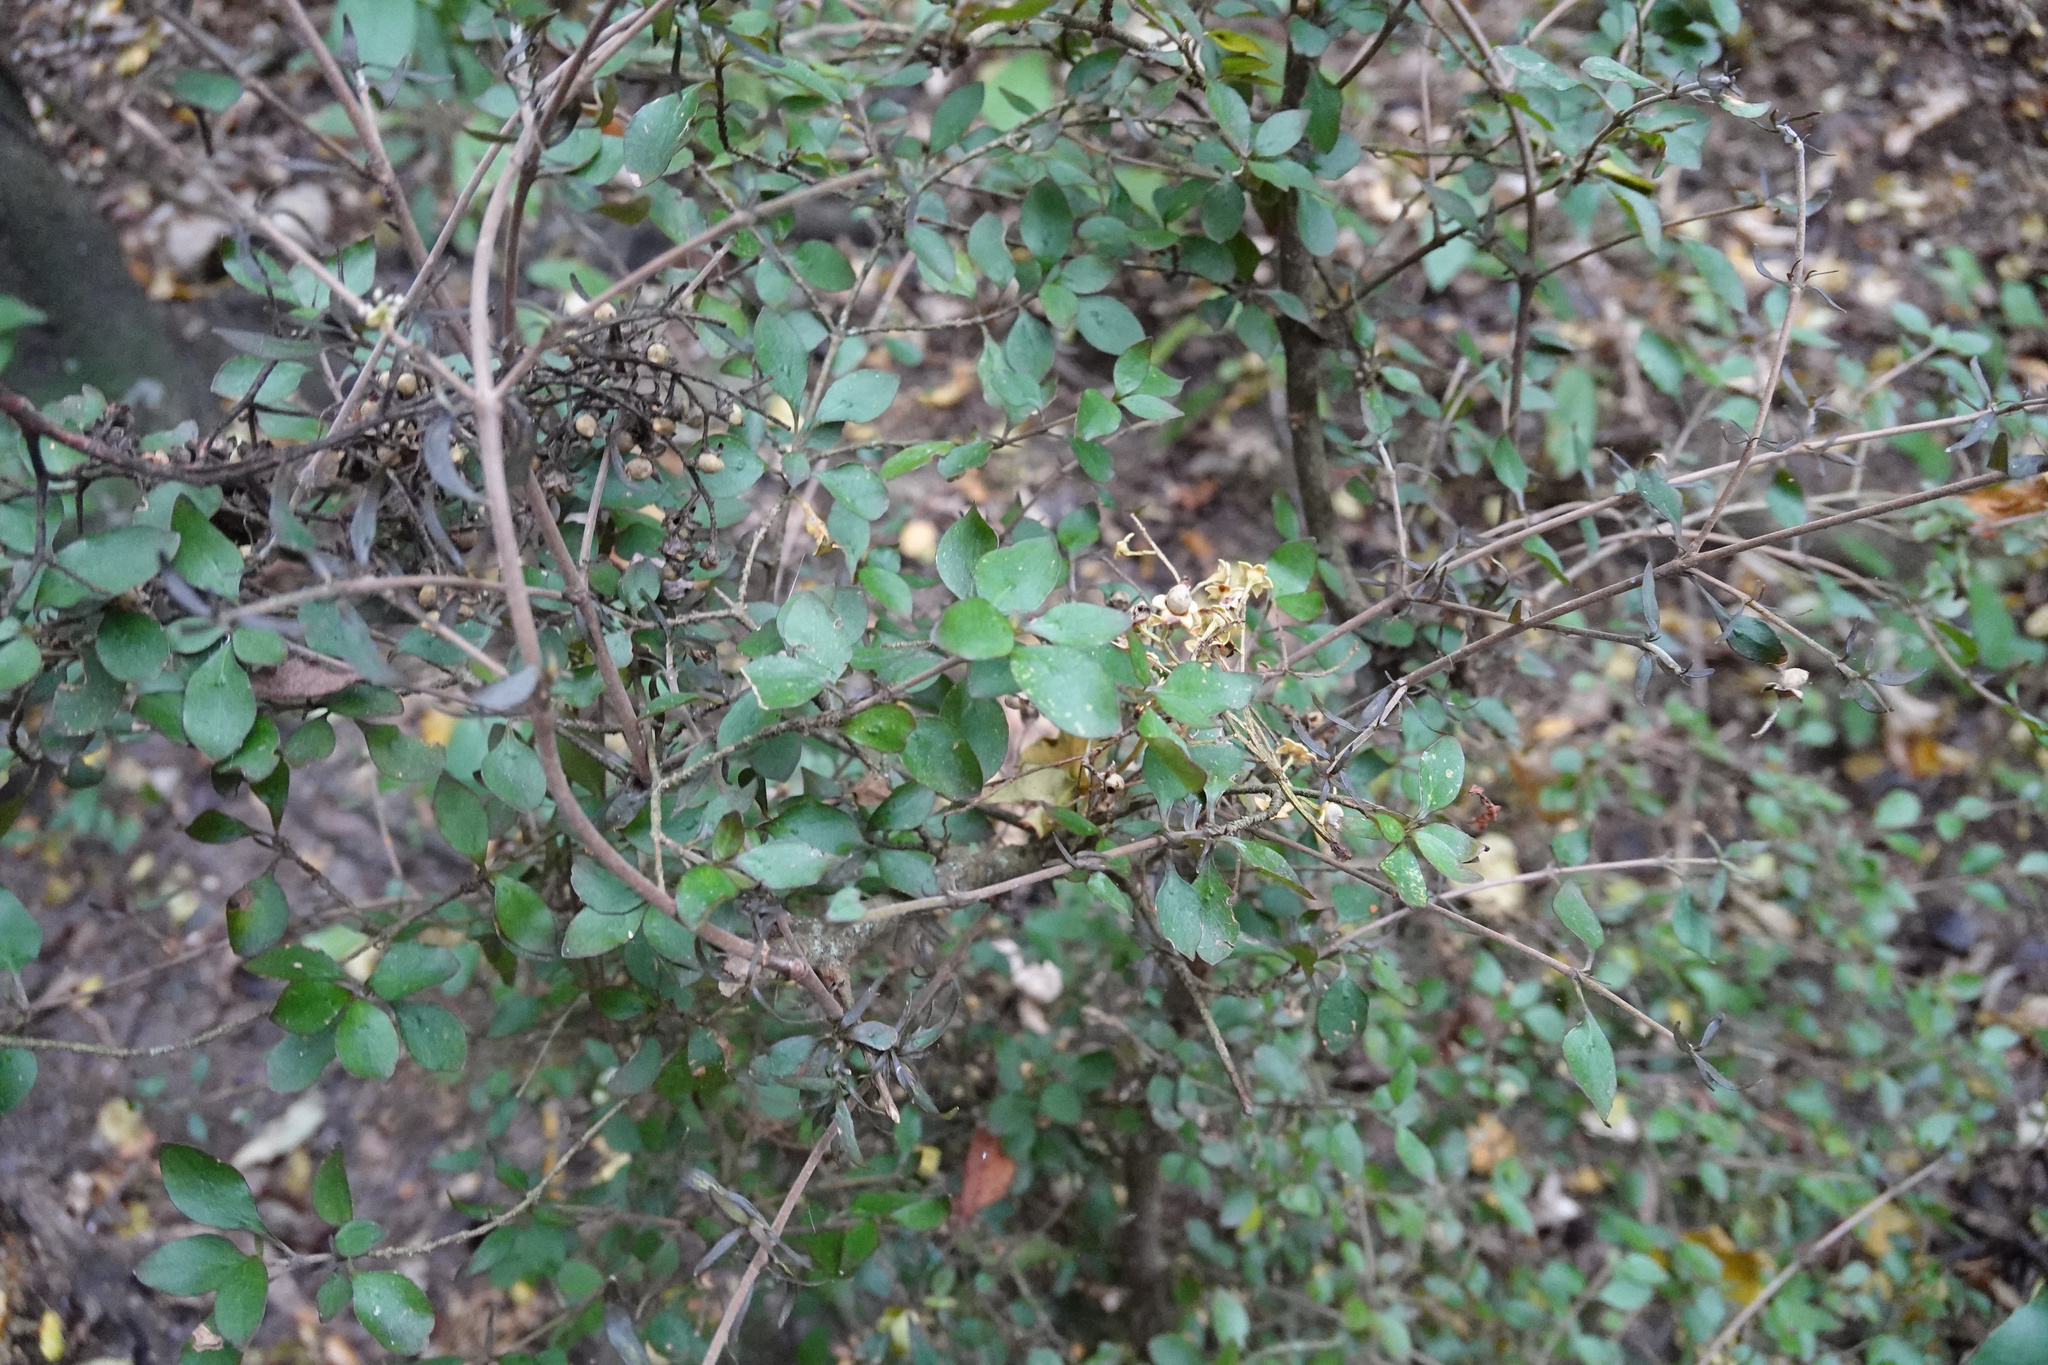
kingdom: Plantae
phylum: Tracheophyta
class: Magnoliopsida
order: Gentianales
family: Rubiaceae
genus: Coprosma
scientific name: Coprosma rhamnoides
